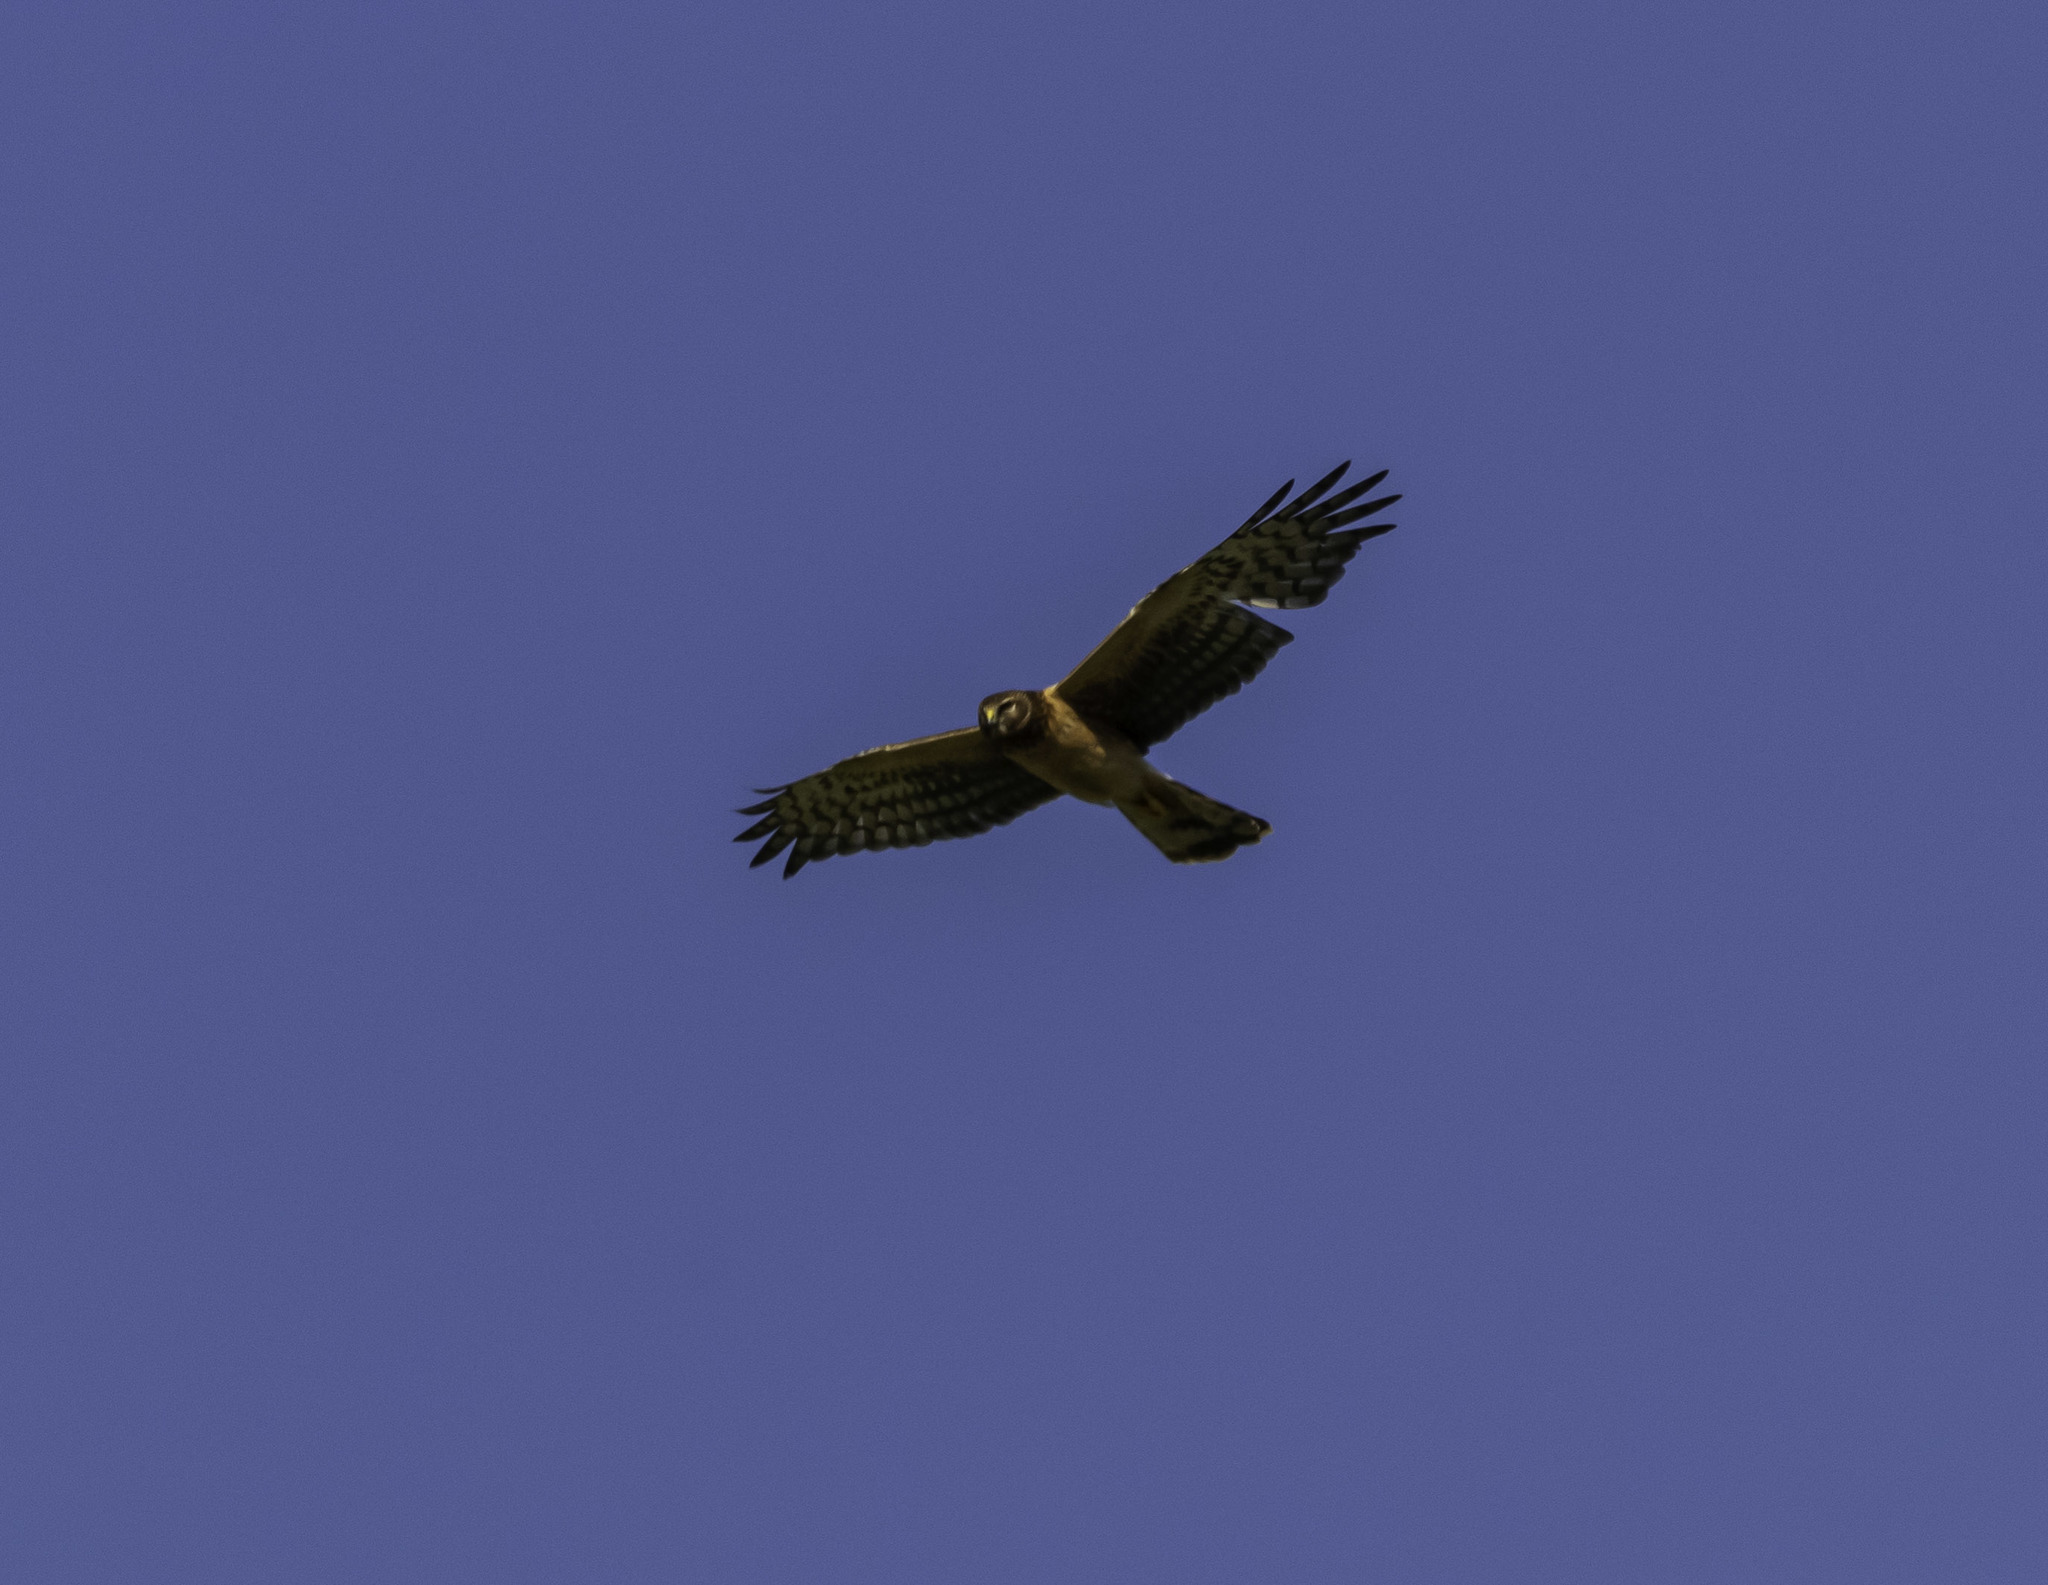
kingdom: Animalia
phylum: Chordata
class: Aves
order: Accipitriformes
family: Accipitridae
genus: Circus
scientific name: Circus cyaneus
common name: Hen harrier
